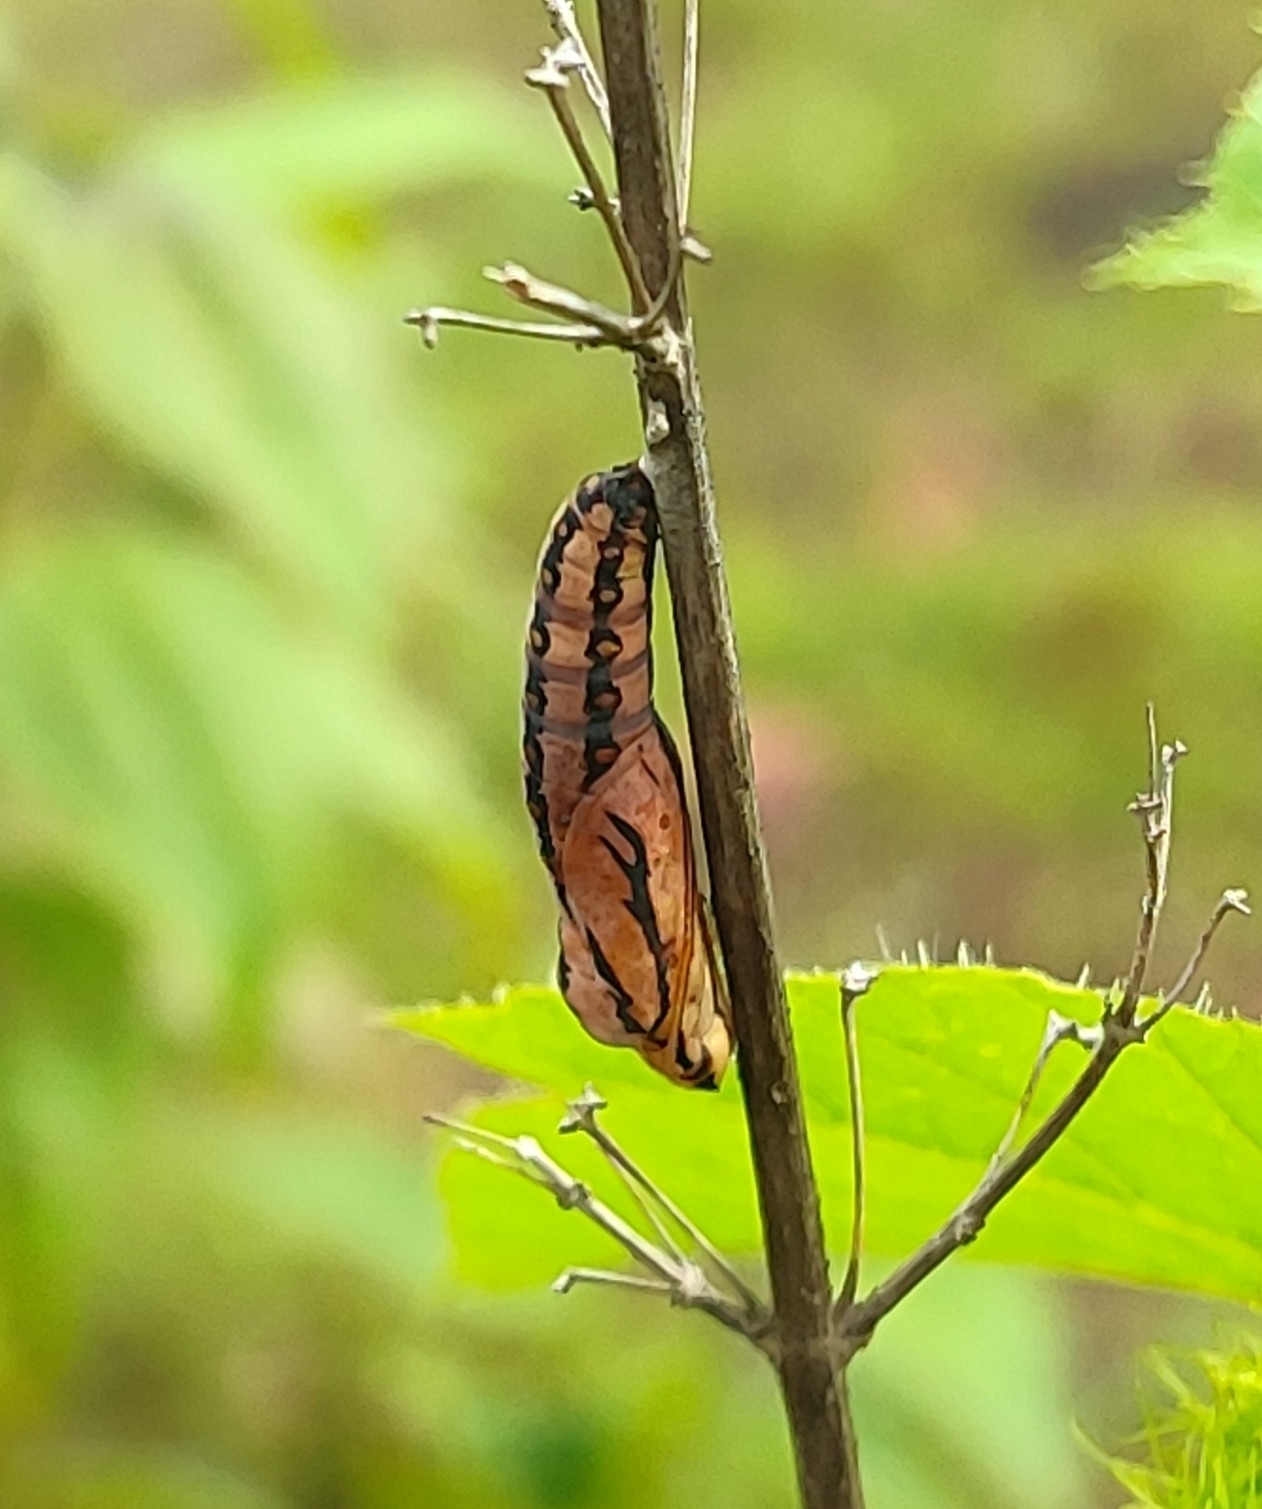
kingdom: Animalia
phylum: Arthropoda
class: Insecta
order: Lepidoptera
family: Nymphalidae
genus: Acraea
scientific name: Acraea terpsicore
